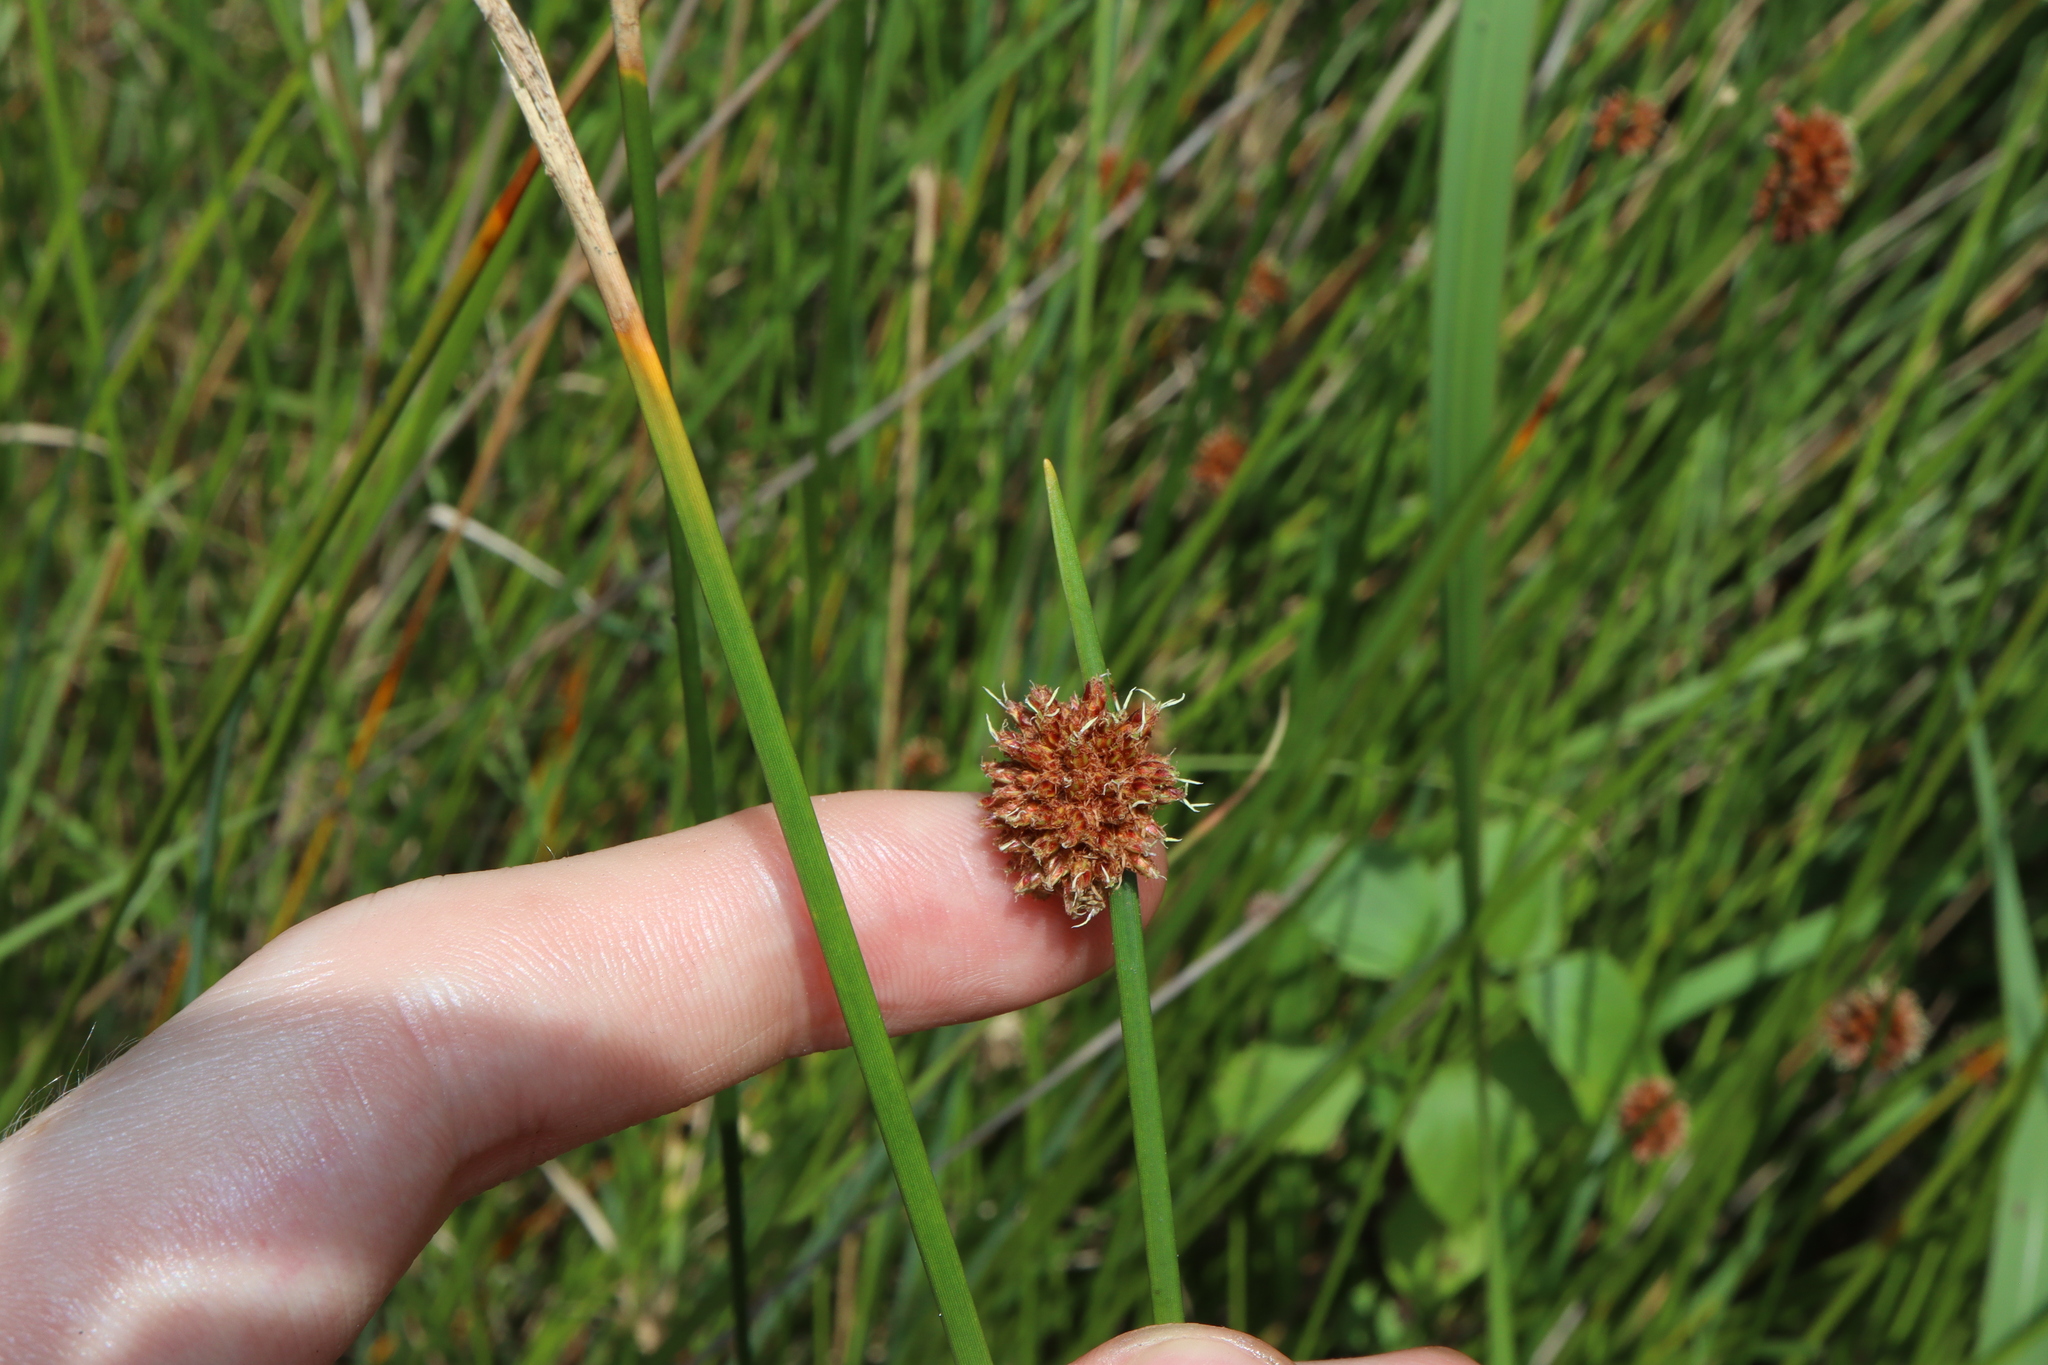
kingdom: Plantae
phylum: Tracheophyta
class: Liliopsida
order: Poales
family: Cyperaceae
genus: Ficinia
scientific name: Ficinia nodosa
